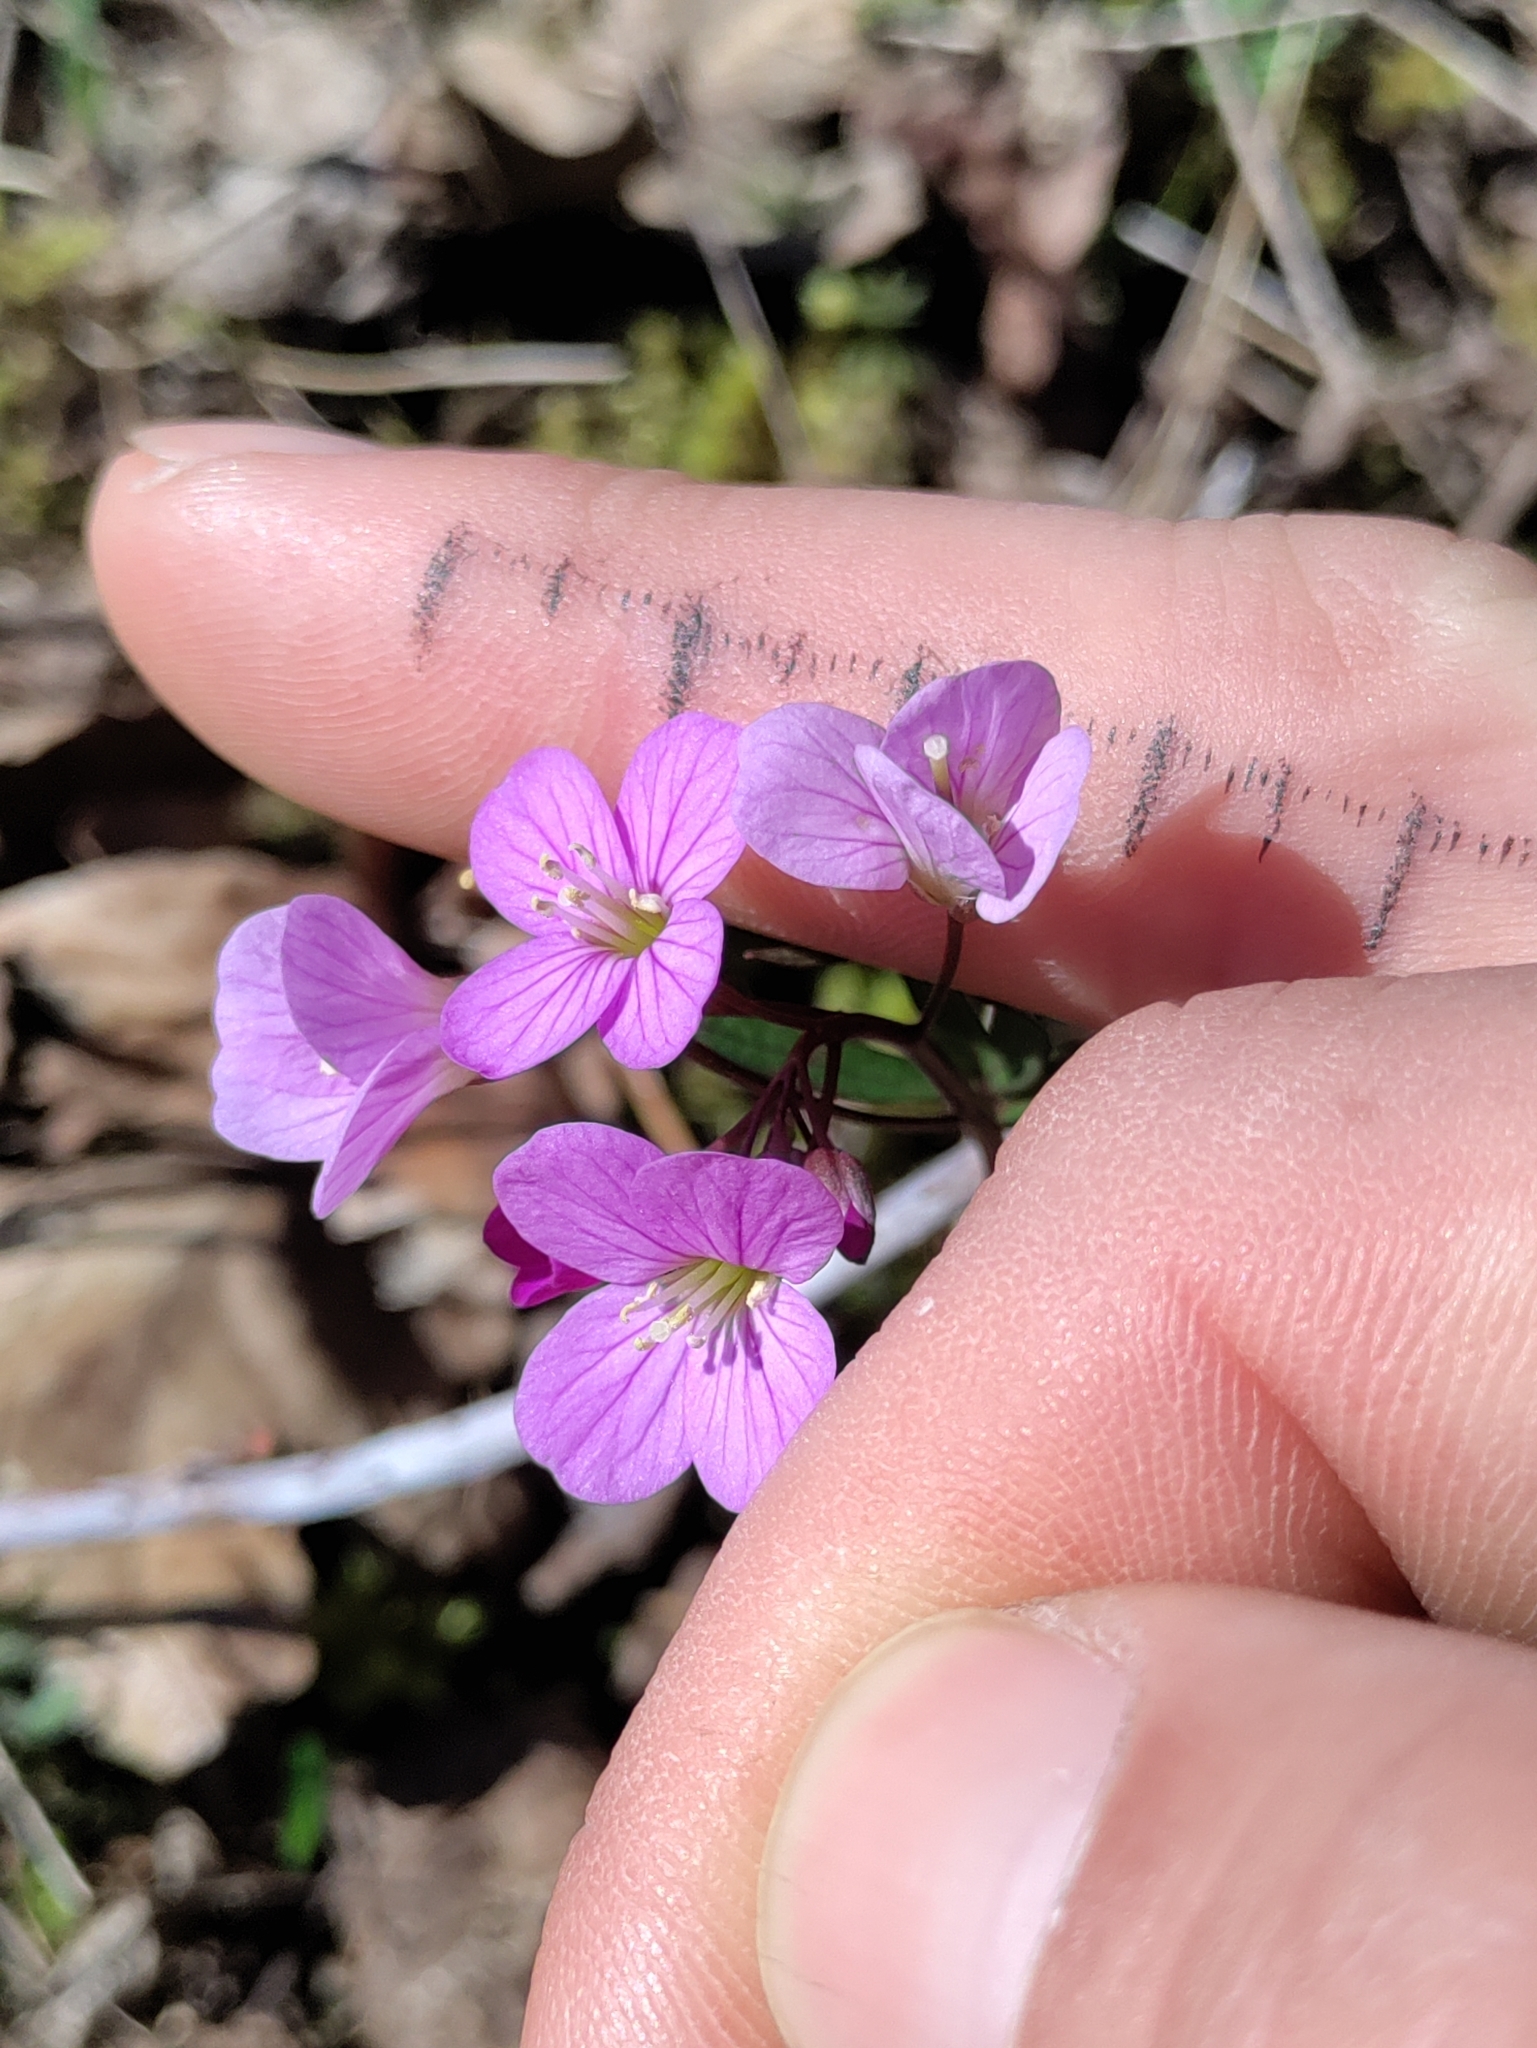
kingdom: Plantae
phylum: Tracheophyta
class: Magnoliopsida
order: Brassicales
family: Brassicaceae
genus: Cardamine
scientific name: Cardamine nuttallii
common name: Nuttall's toothwort
